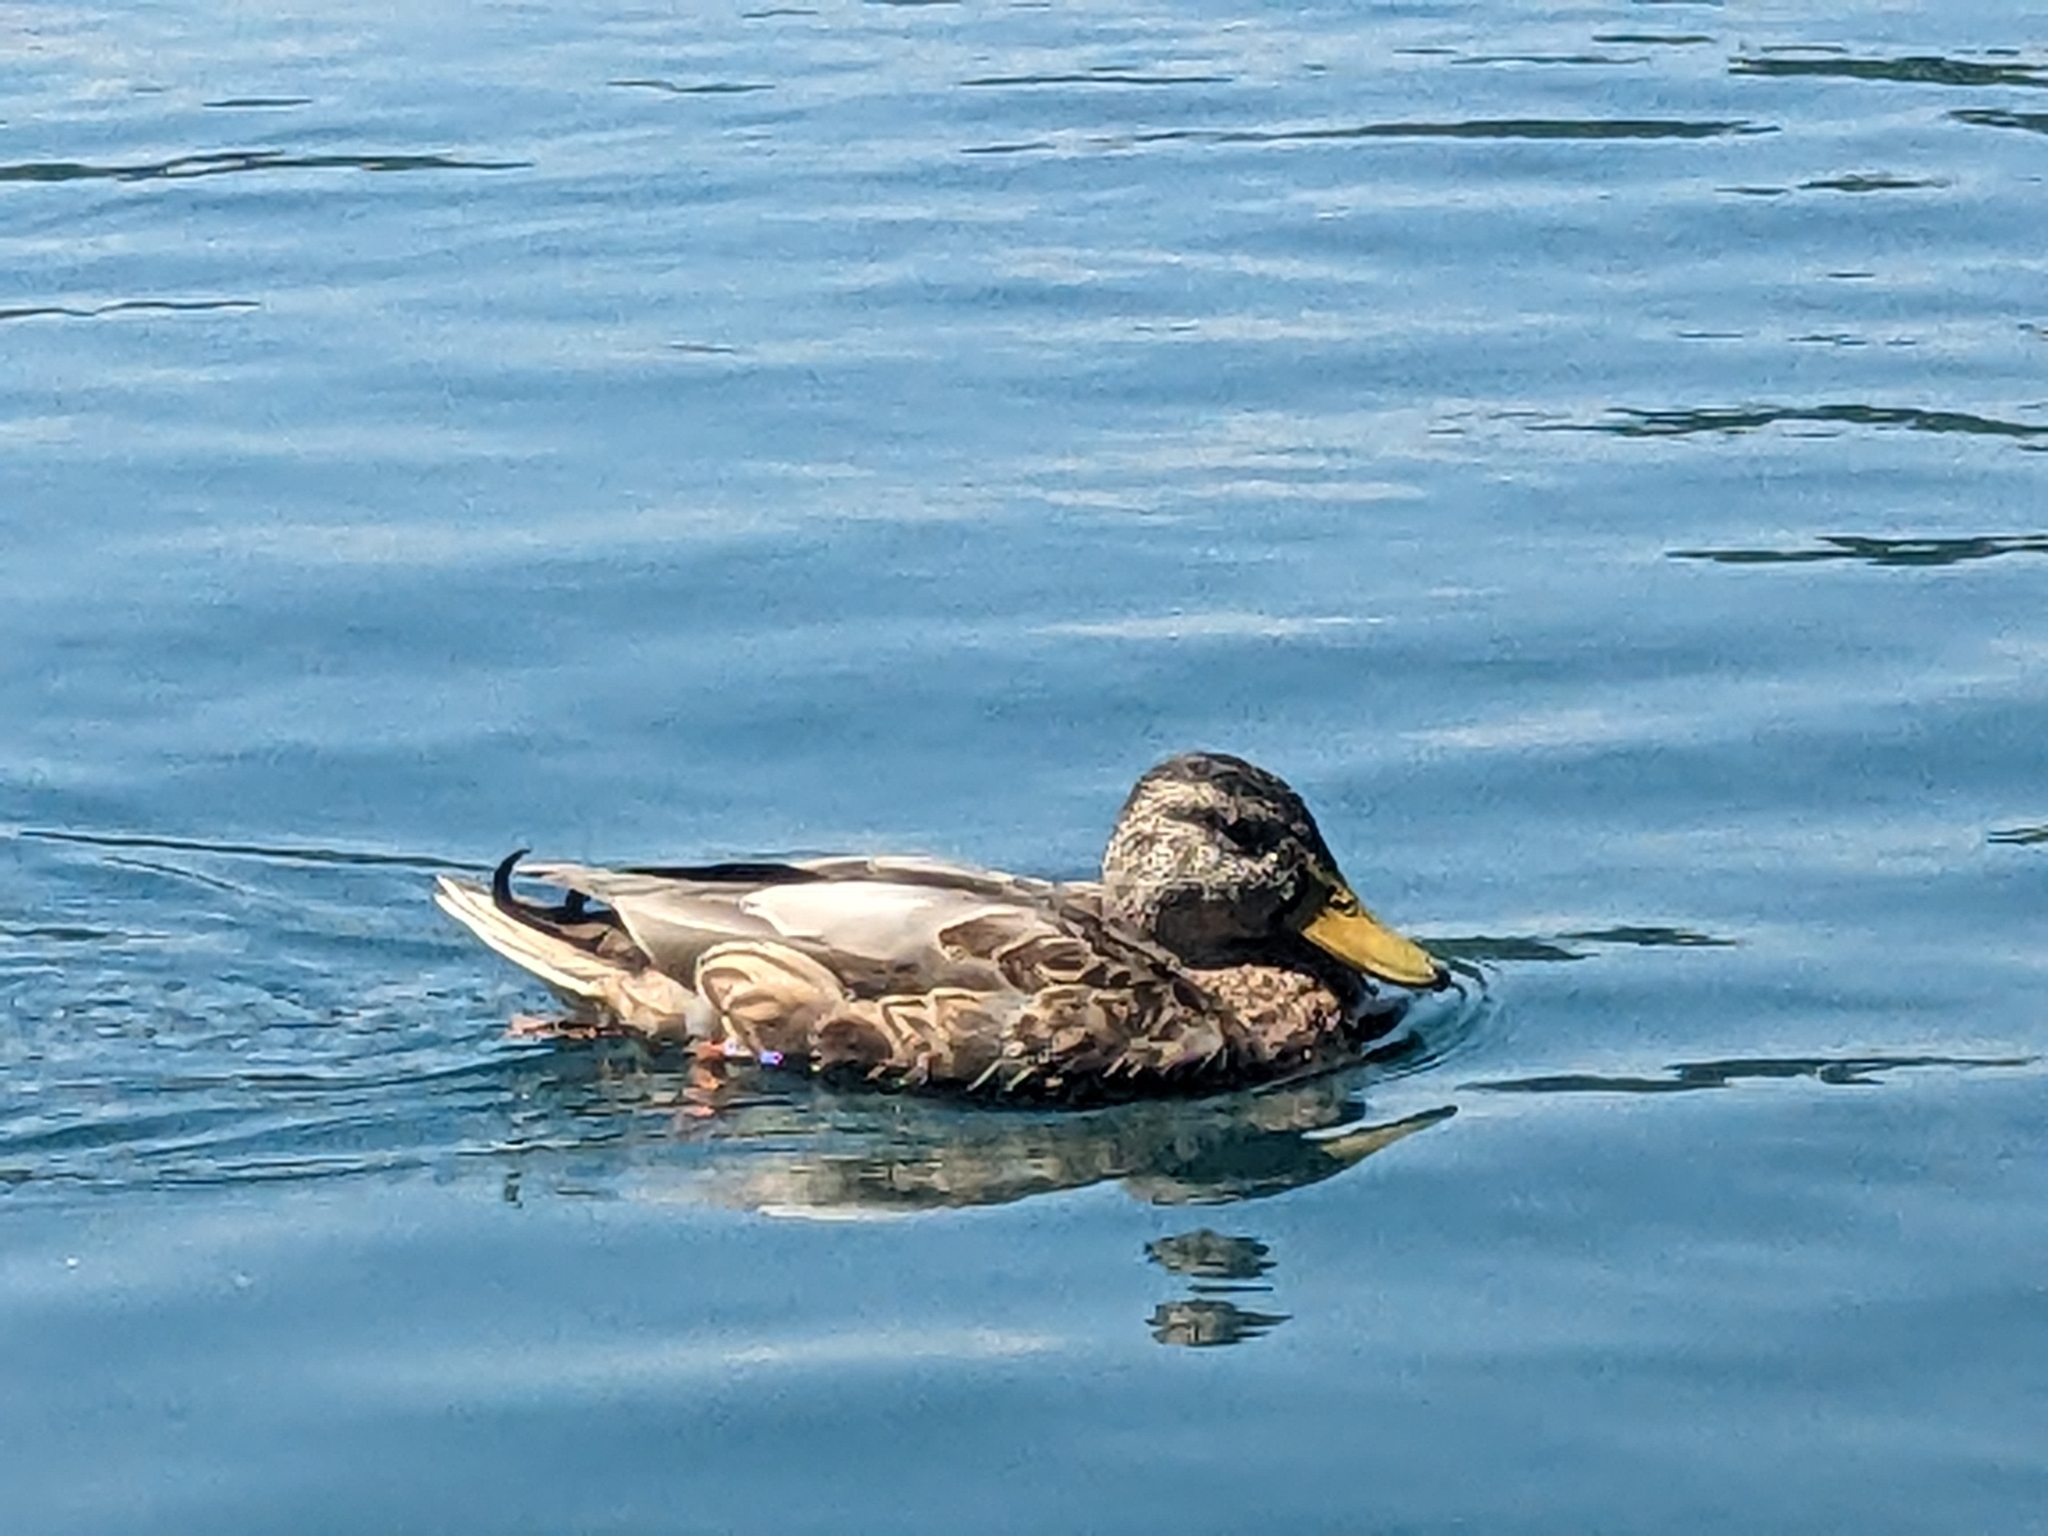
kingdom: Animalia
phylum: Chordata
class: Aves
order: Anseriformes
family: Anatidae
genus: Anas
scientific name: Anas platyrhynchos
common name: Mallard
